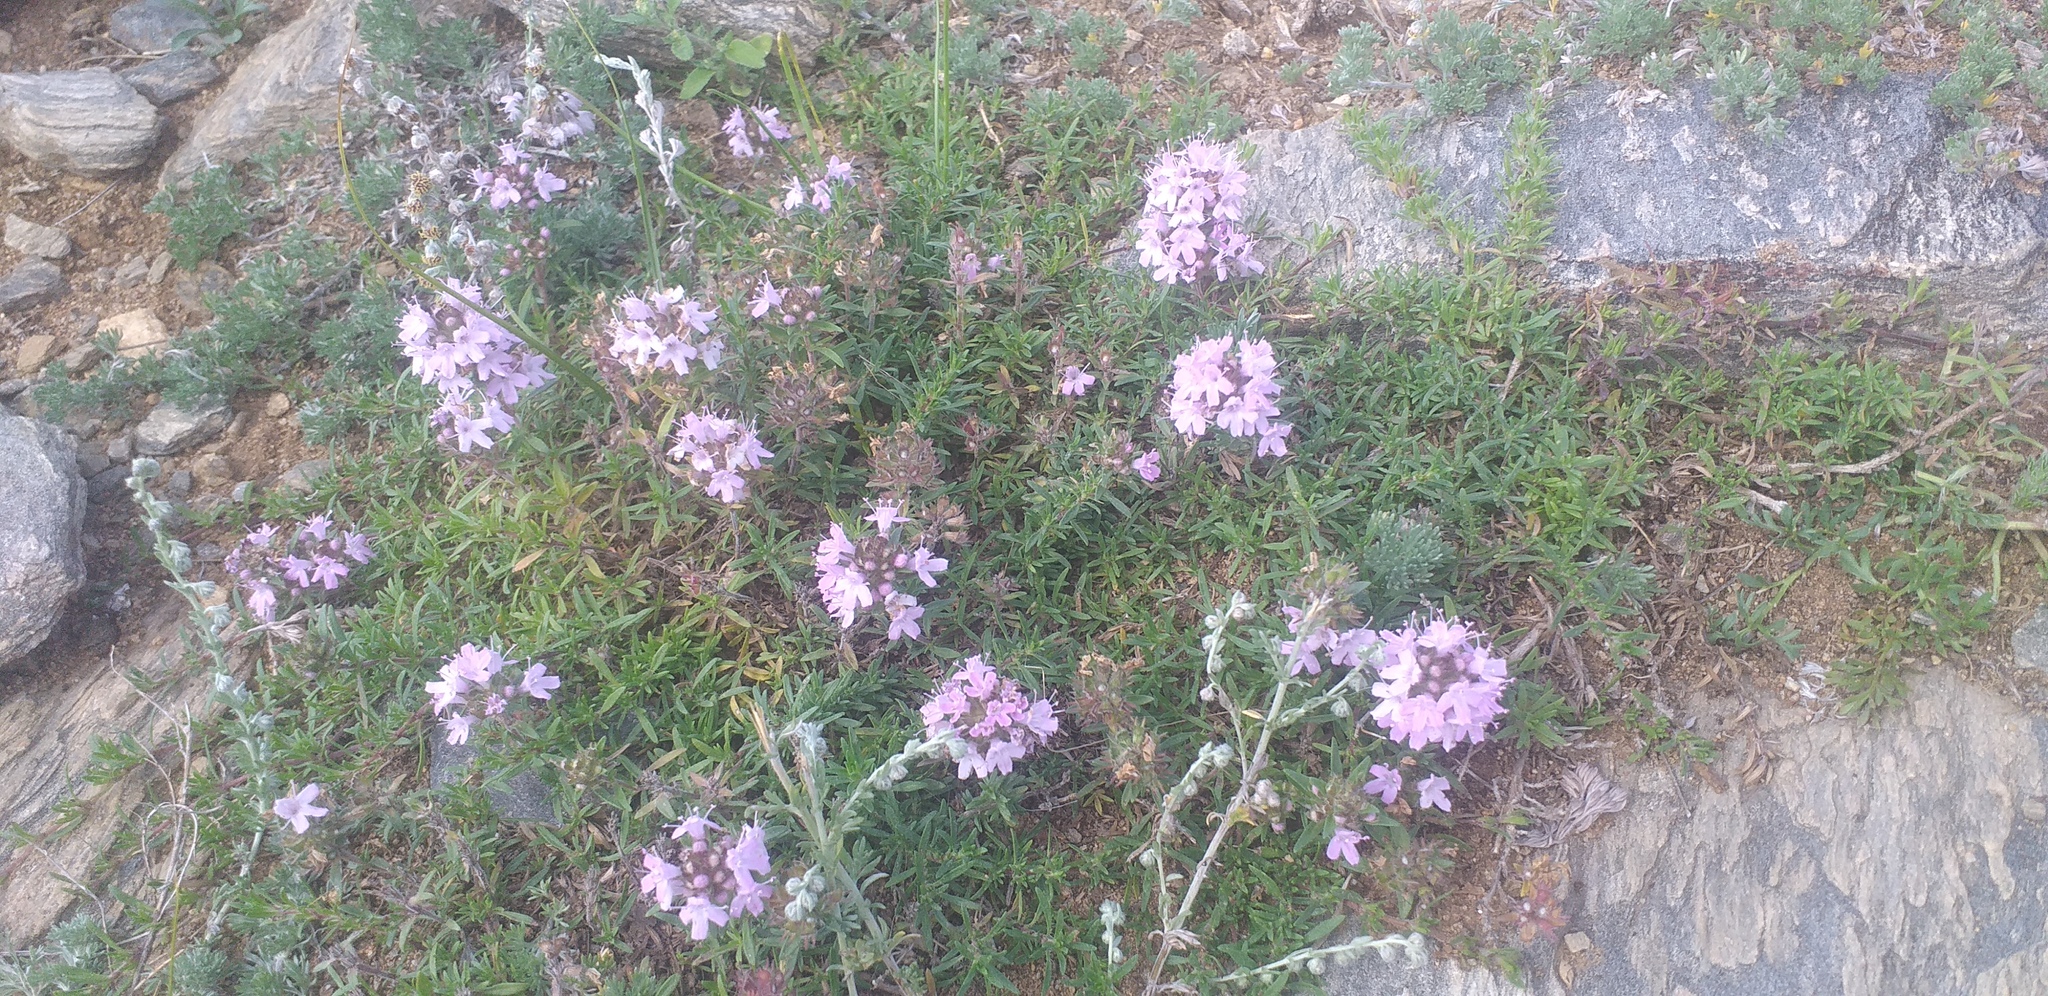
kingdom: Plantae
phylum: Tracheophyta
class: Magnoliopsida
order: Lamiales
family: Lamiaceae
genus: Thymus
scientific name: Thymus gobicus
